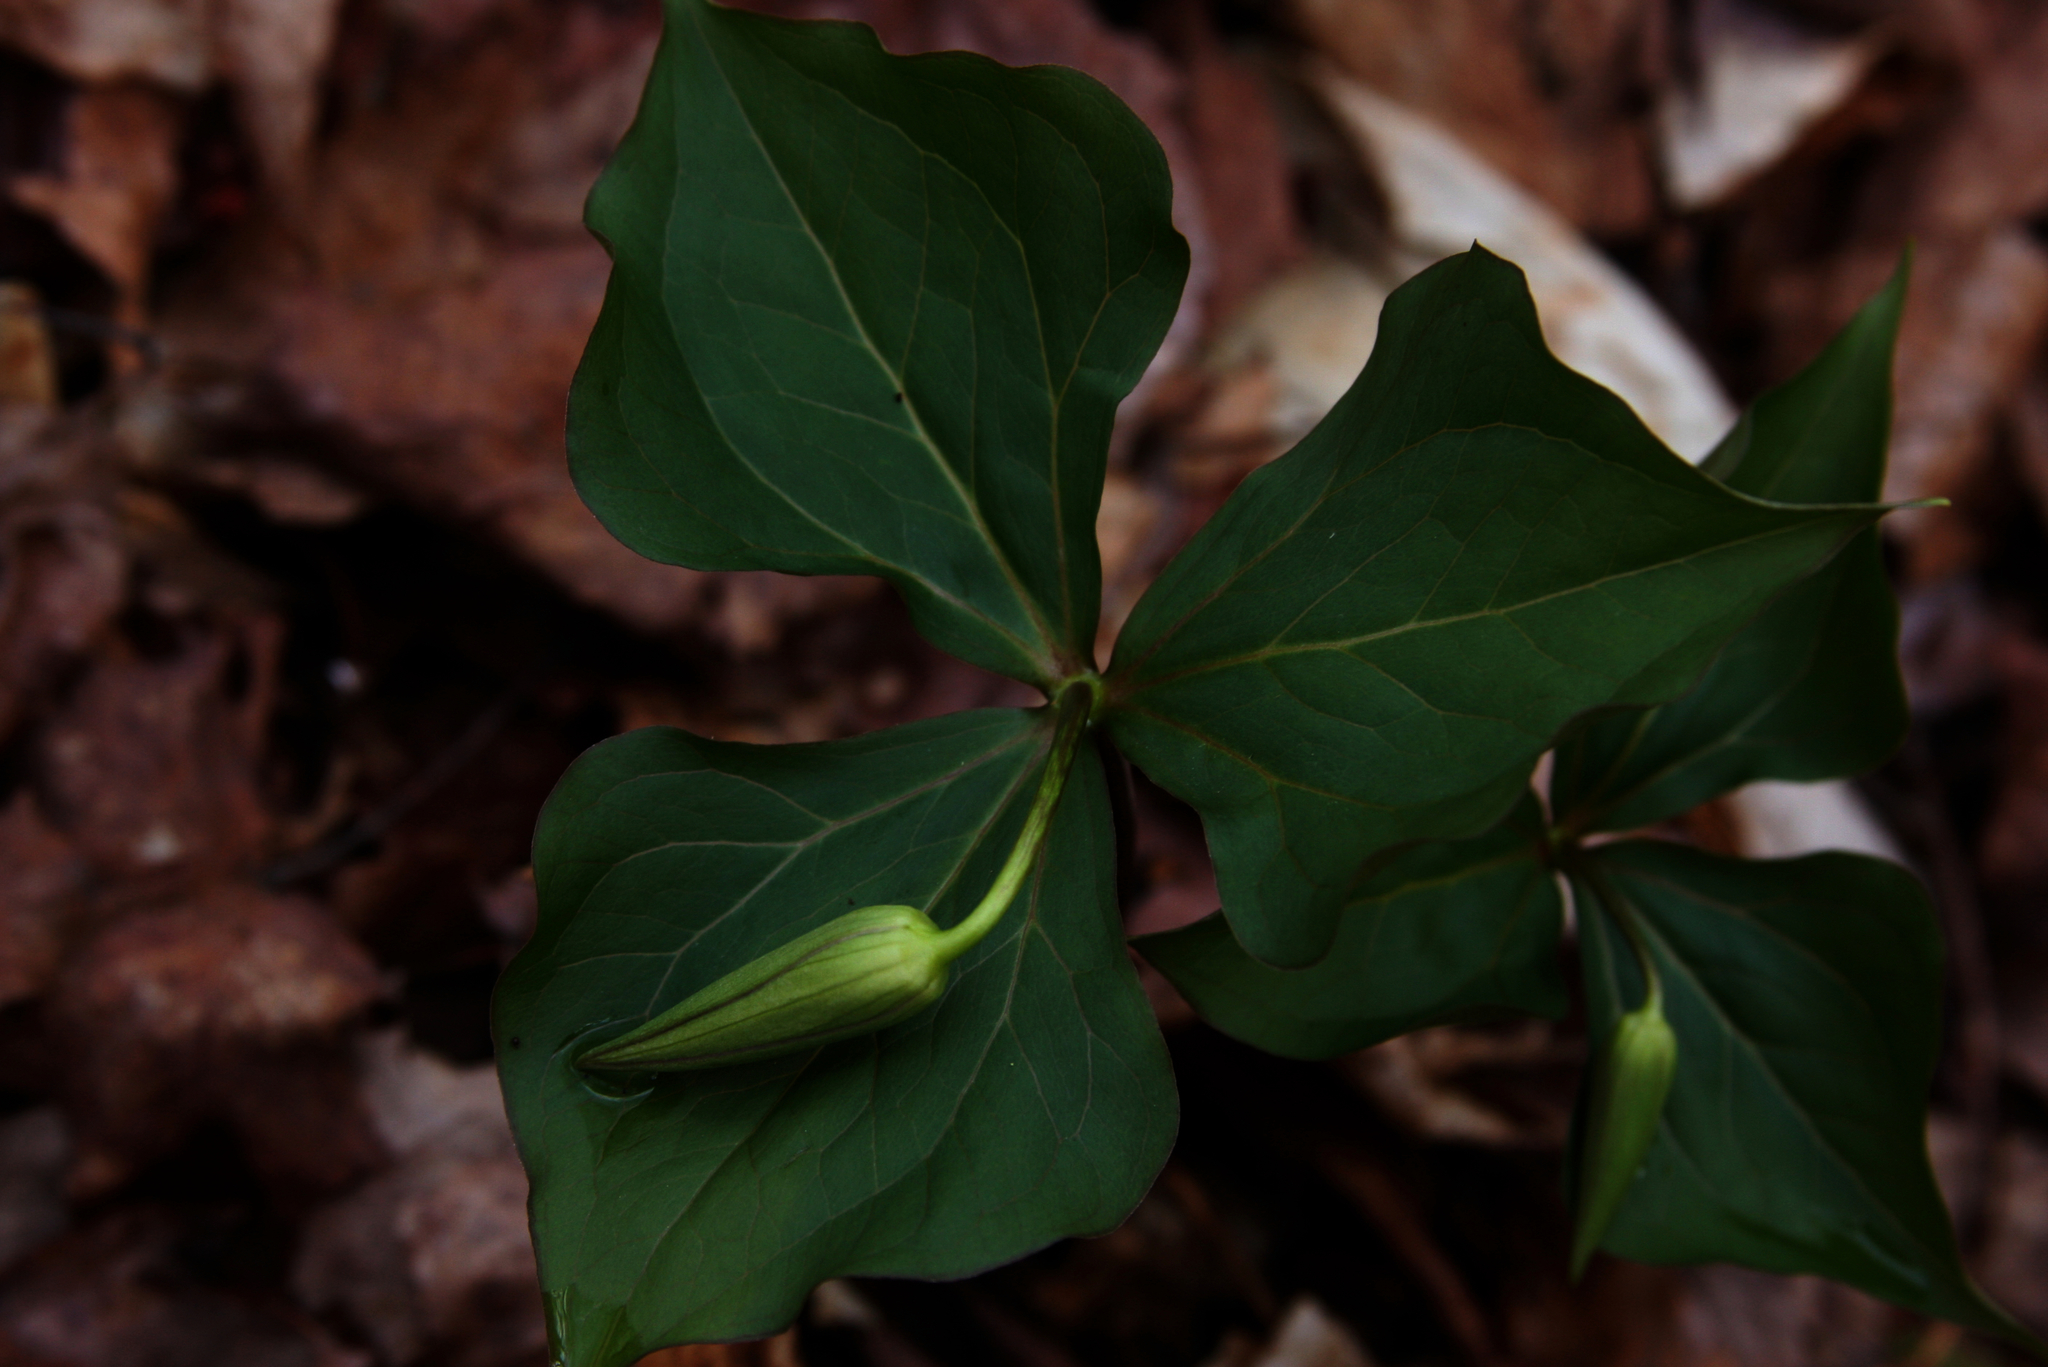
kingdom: Plantae
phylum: Tracheophyta
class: Liliopsida
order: Liliales
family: Melanthiaceae
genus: Trillium
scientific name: Trillium erectum
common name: Purple trillium
